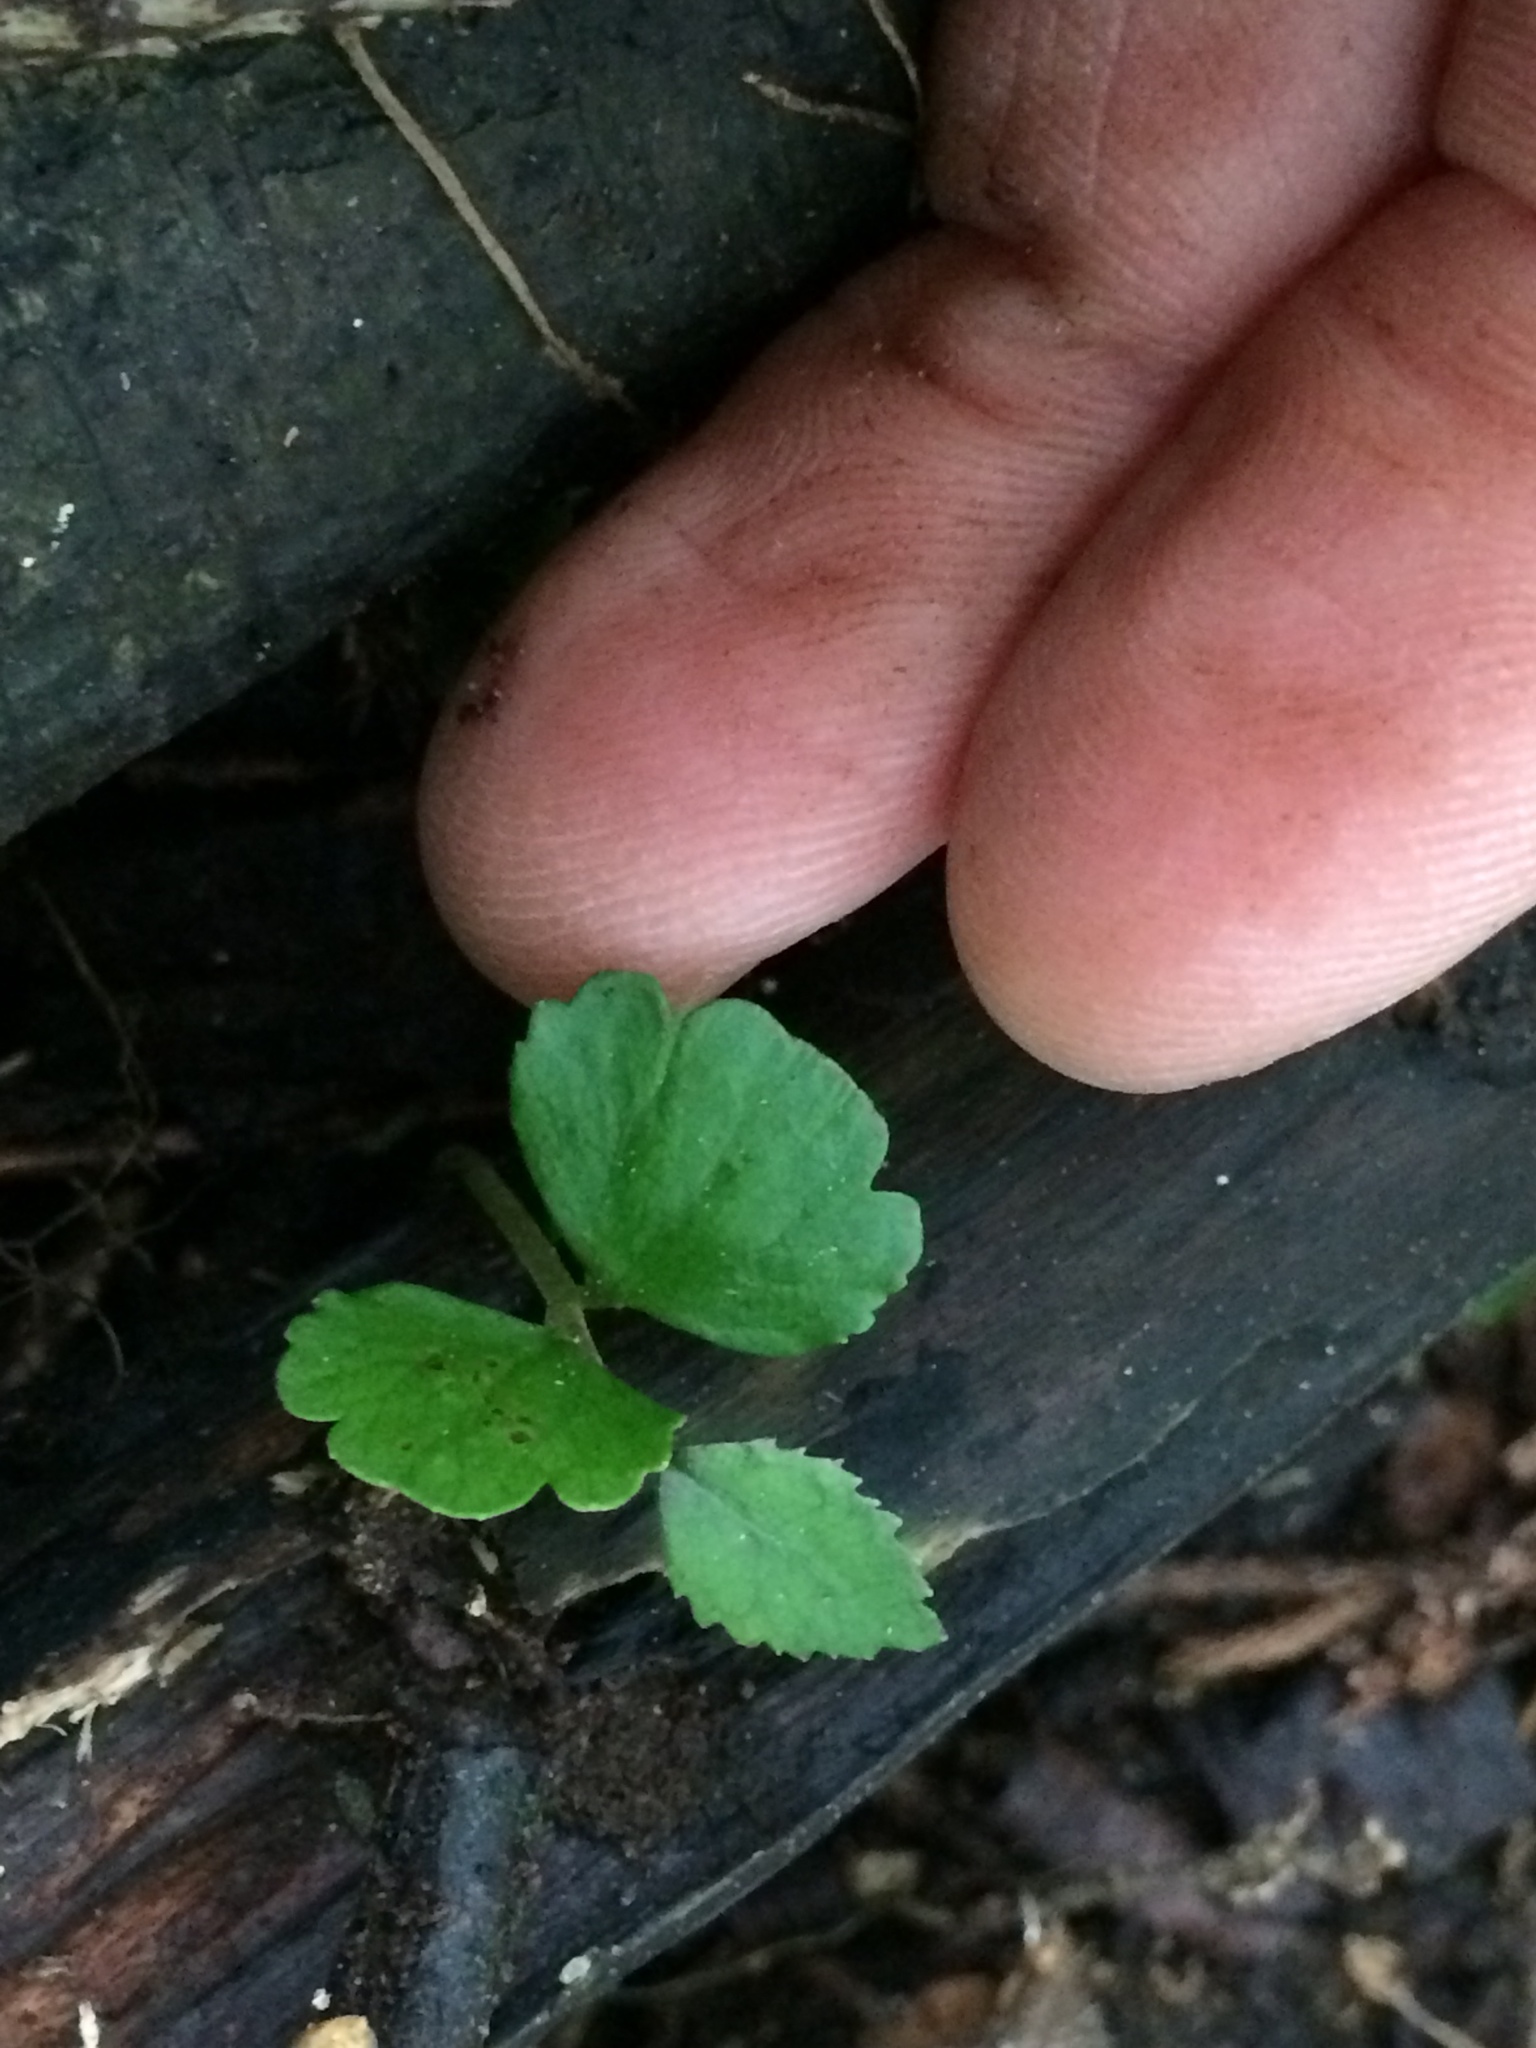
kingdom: Plantae
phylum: Tracheophyta
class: Magnoliopsida
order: Rosales
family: Moraceae
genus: Paratrophis
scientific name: Paratrophis microphylla
